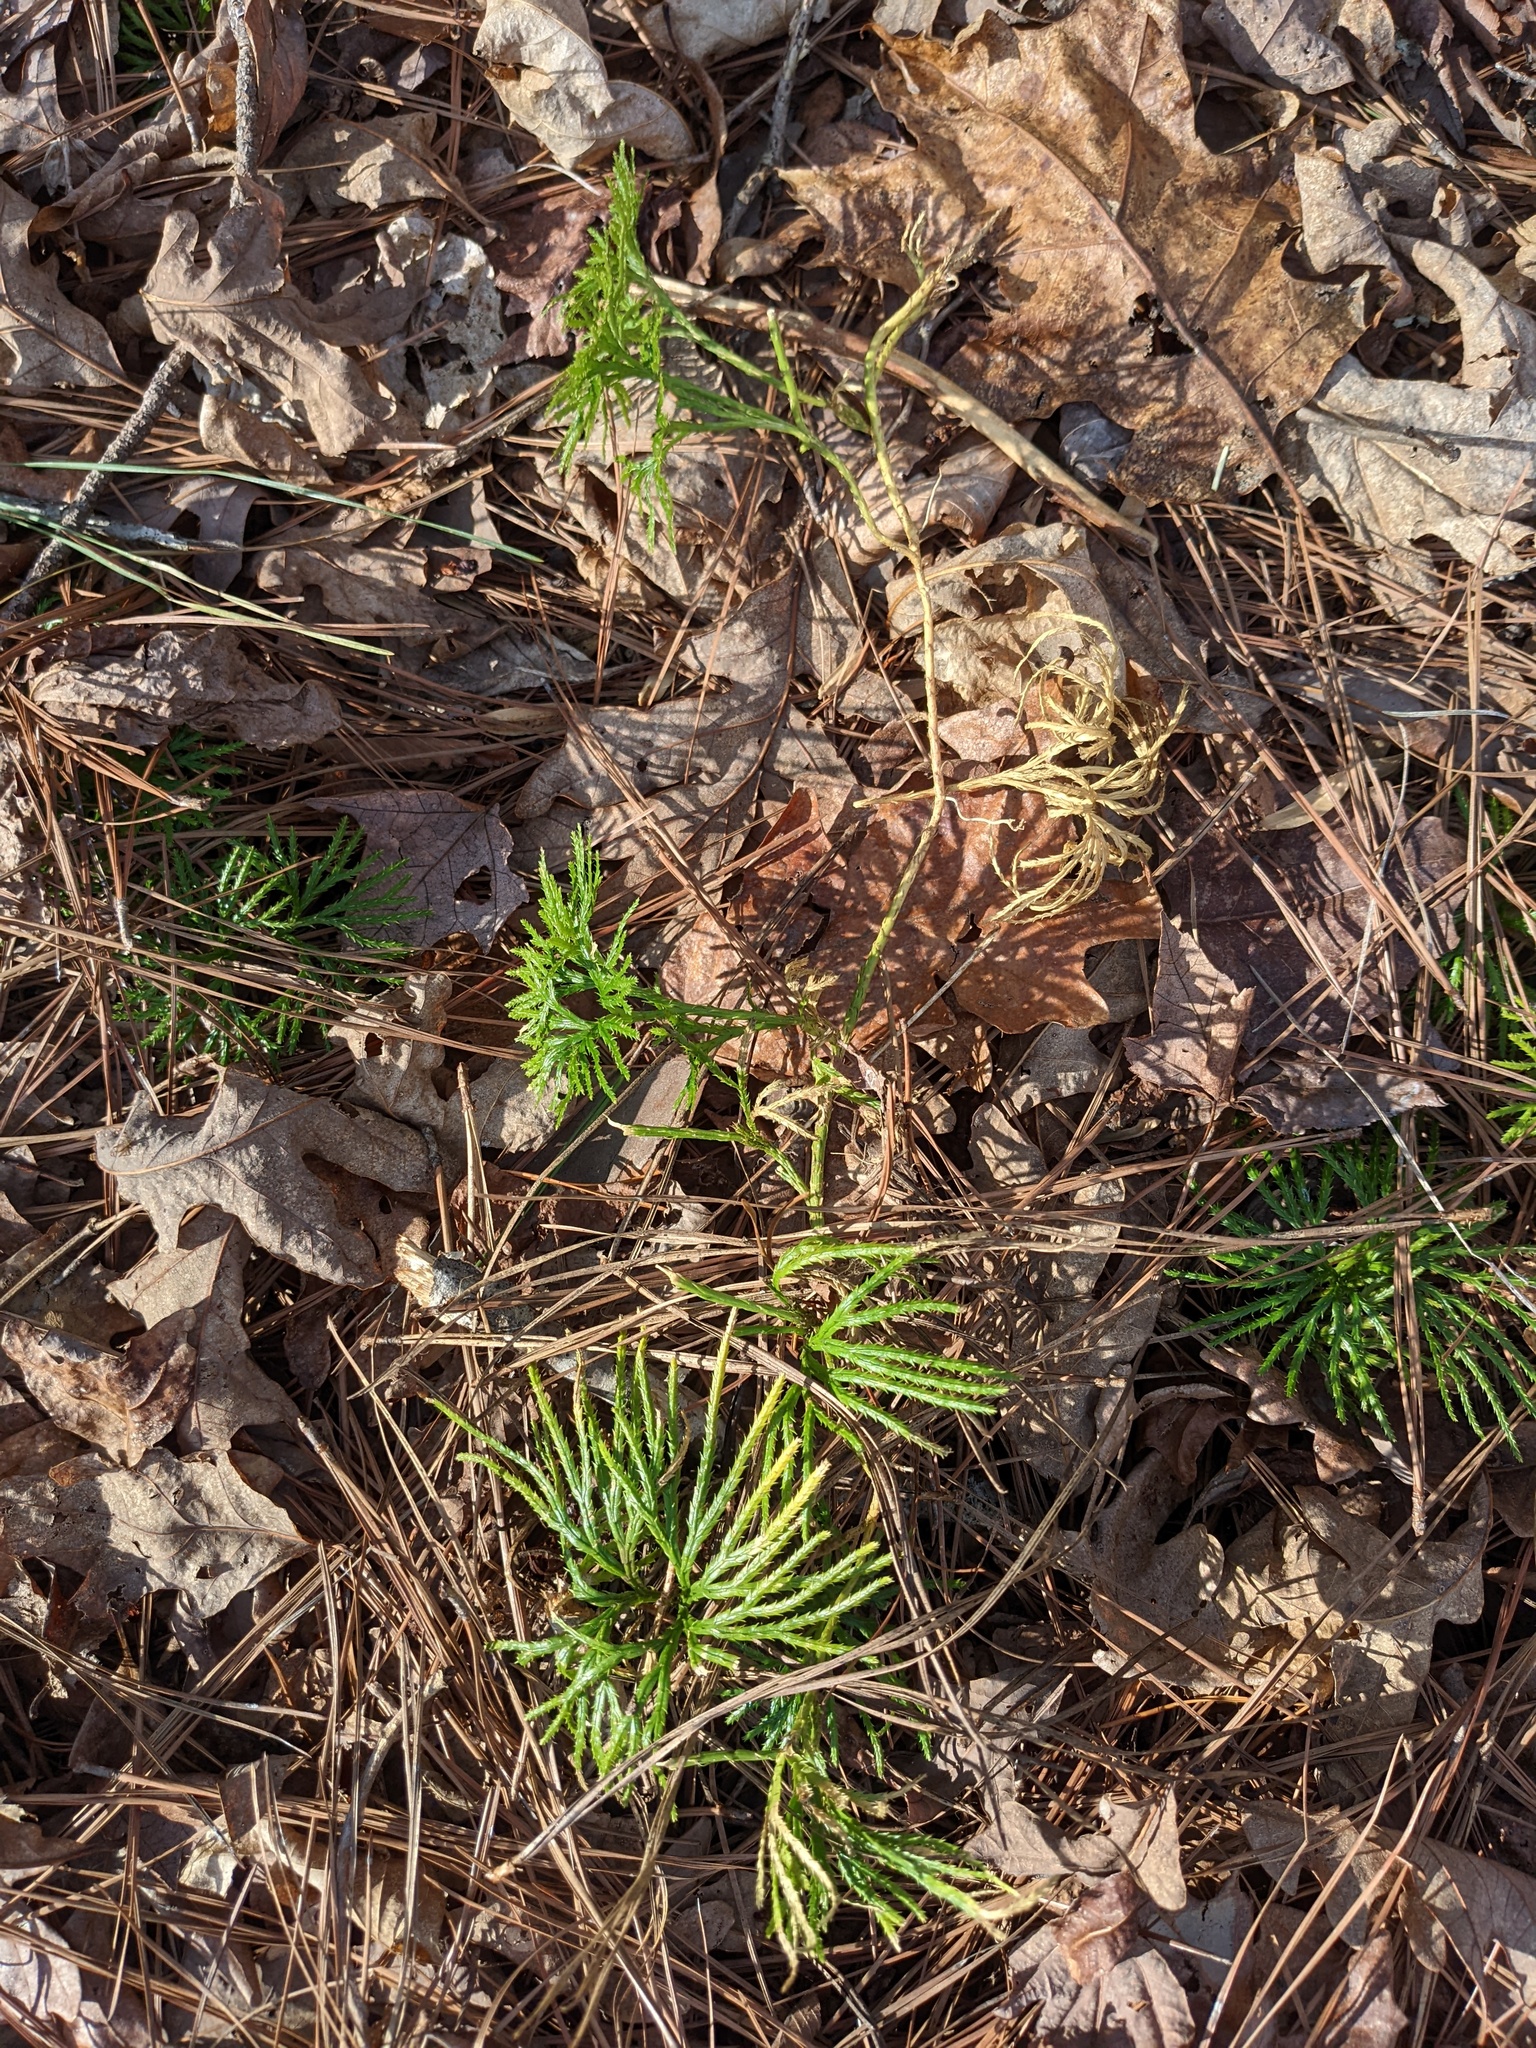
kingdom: Plantae
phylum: Tracheophyta
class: Lycopodiopsida
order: Lycopodiales
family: Lycopodiaceae
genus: Diphasiastrum
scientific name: Diphasiastrum digitatum
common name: Southern running-pine
